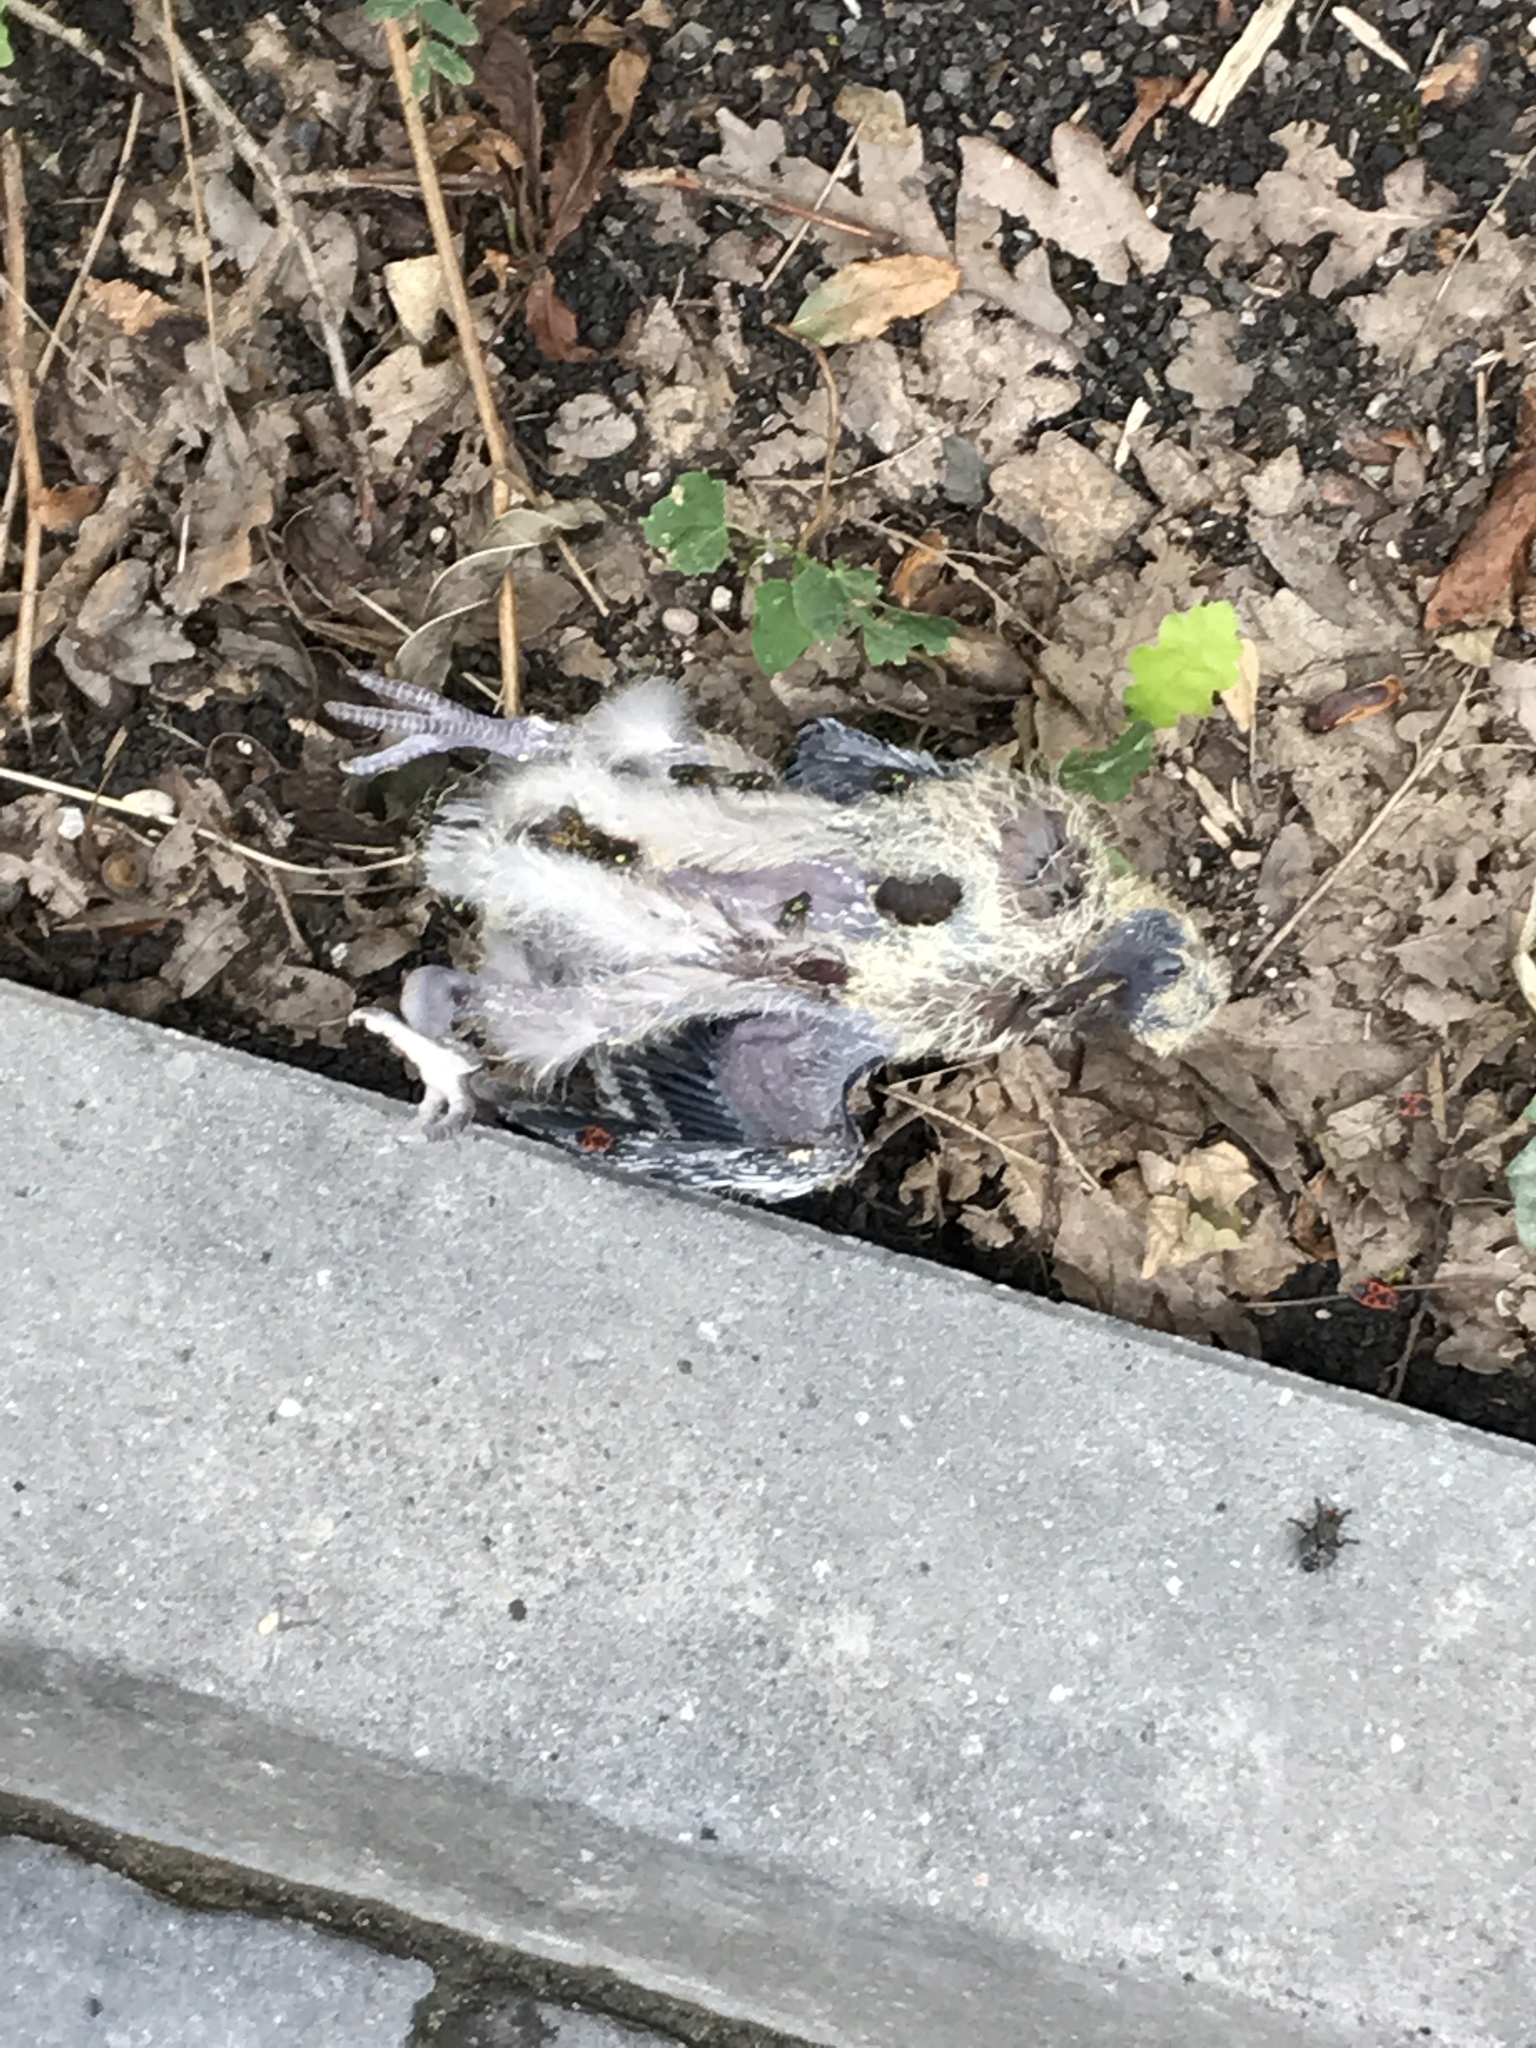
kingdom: Animalia
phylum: Chordata
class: Aves
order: Columbiformes
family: Columbidae
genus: Columba
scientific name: Columba palumbus
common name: Common wood pigeon
